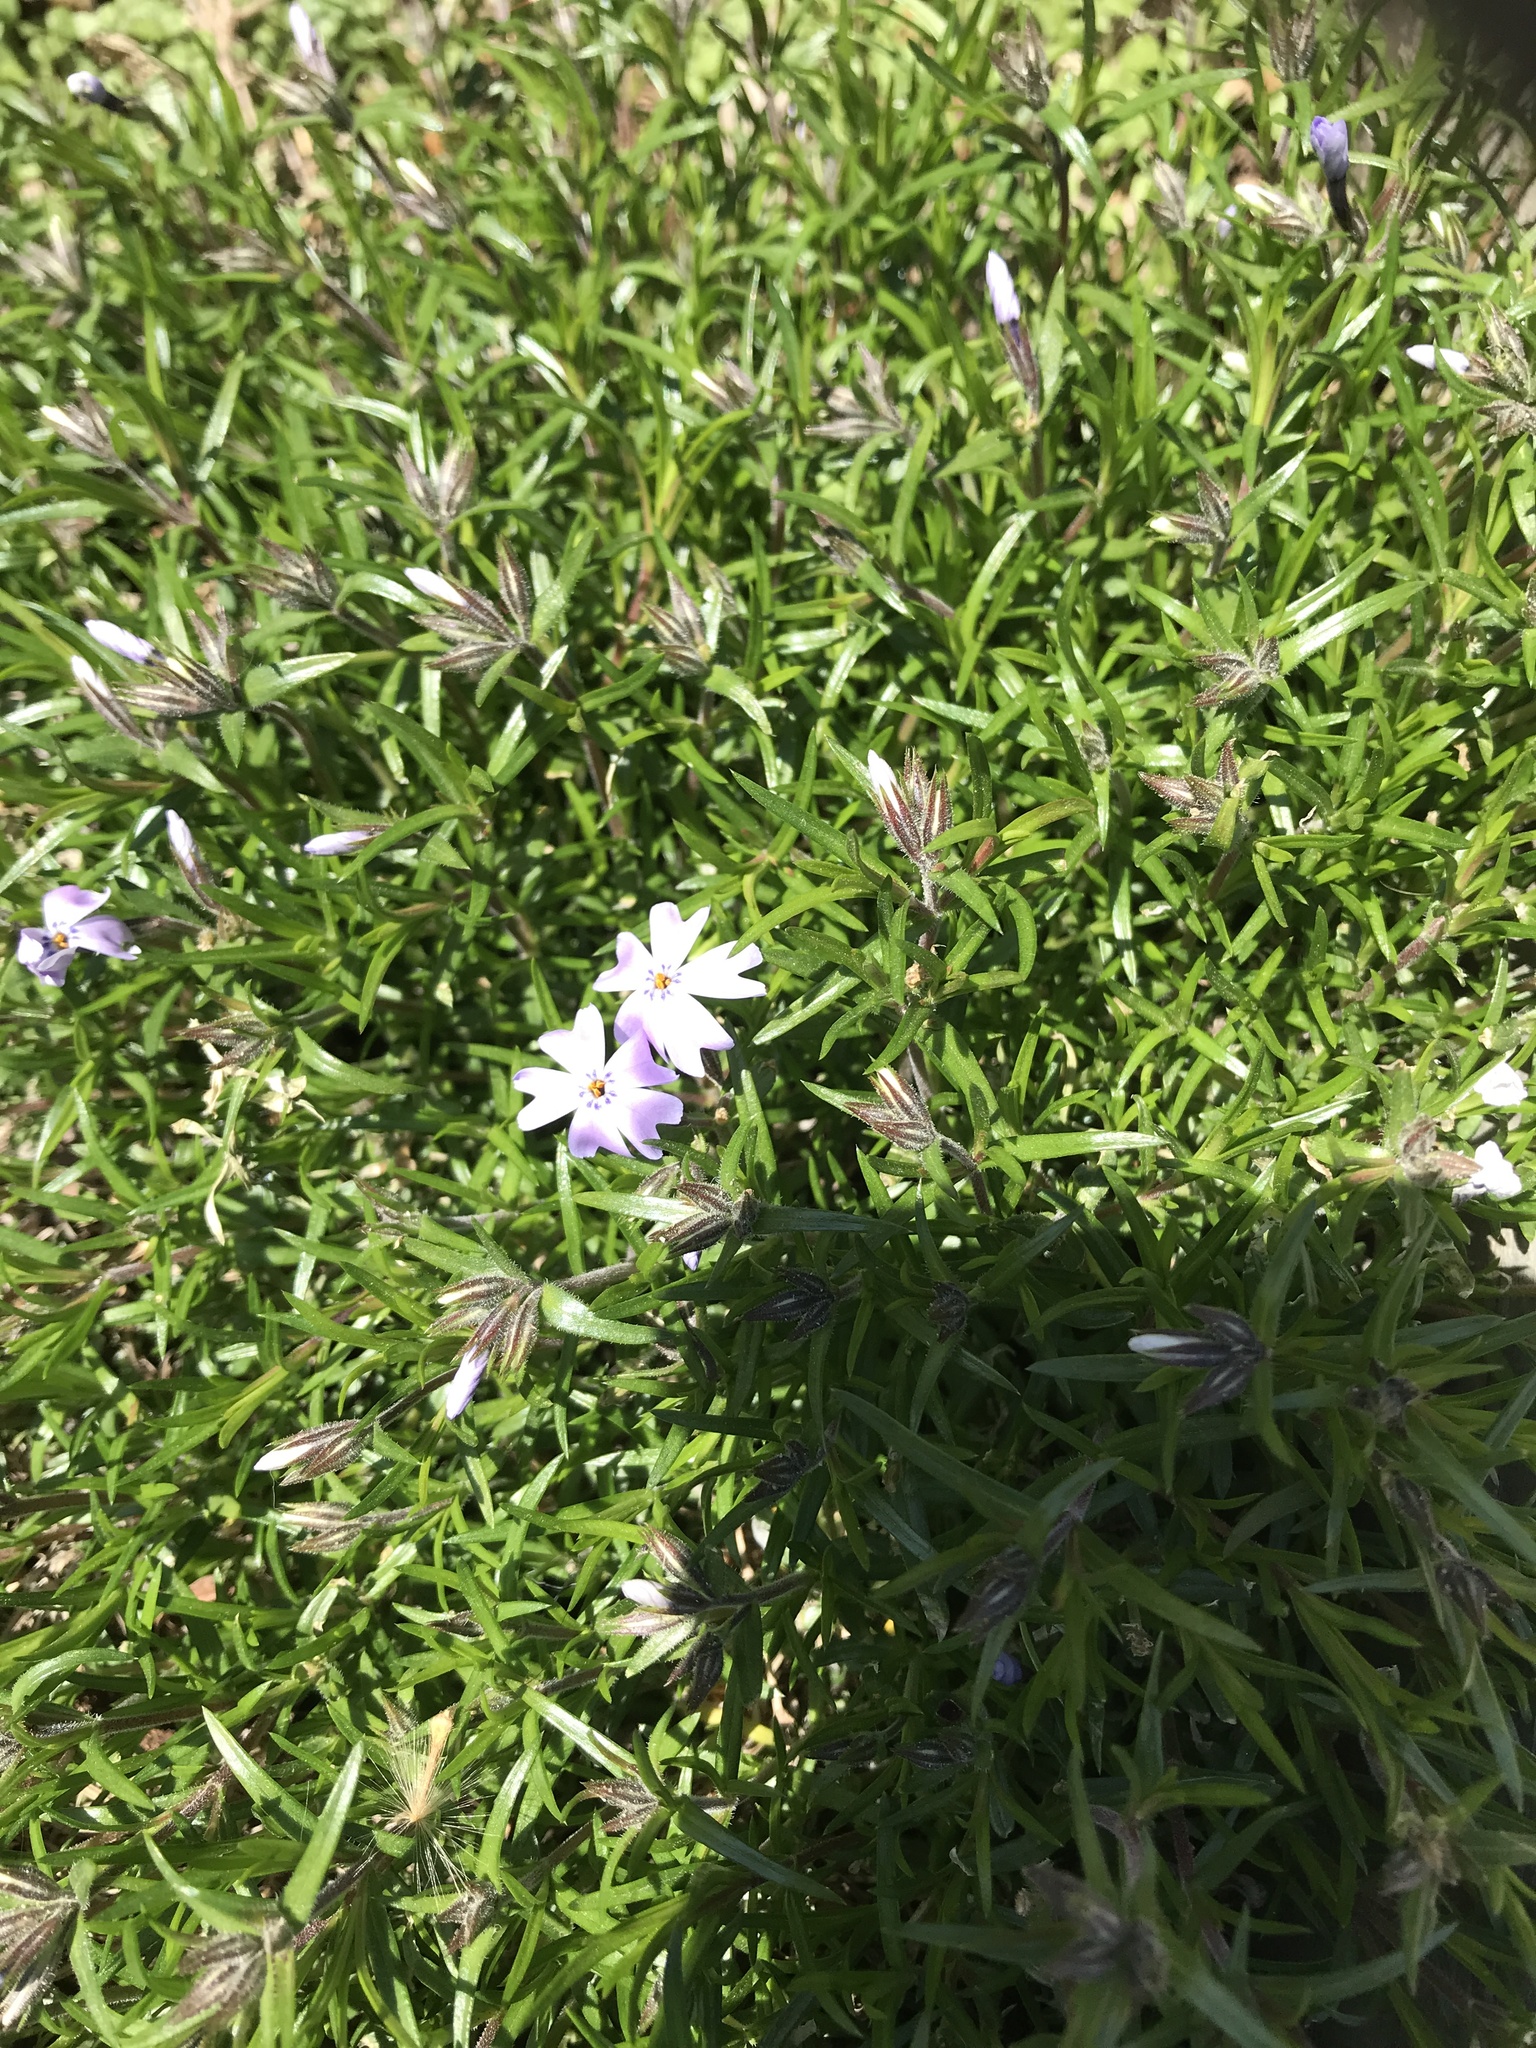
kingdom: Plantae
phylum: Tracheophyta
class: Magnoliopsida
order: Ericales
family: Polemoniaceae
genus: Phlox
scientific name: Phlox subulata
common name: Moss phlox
